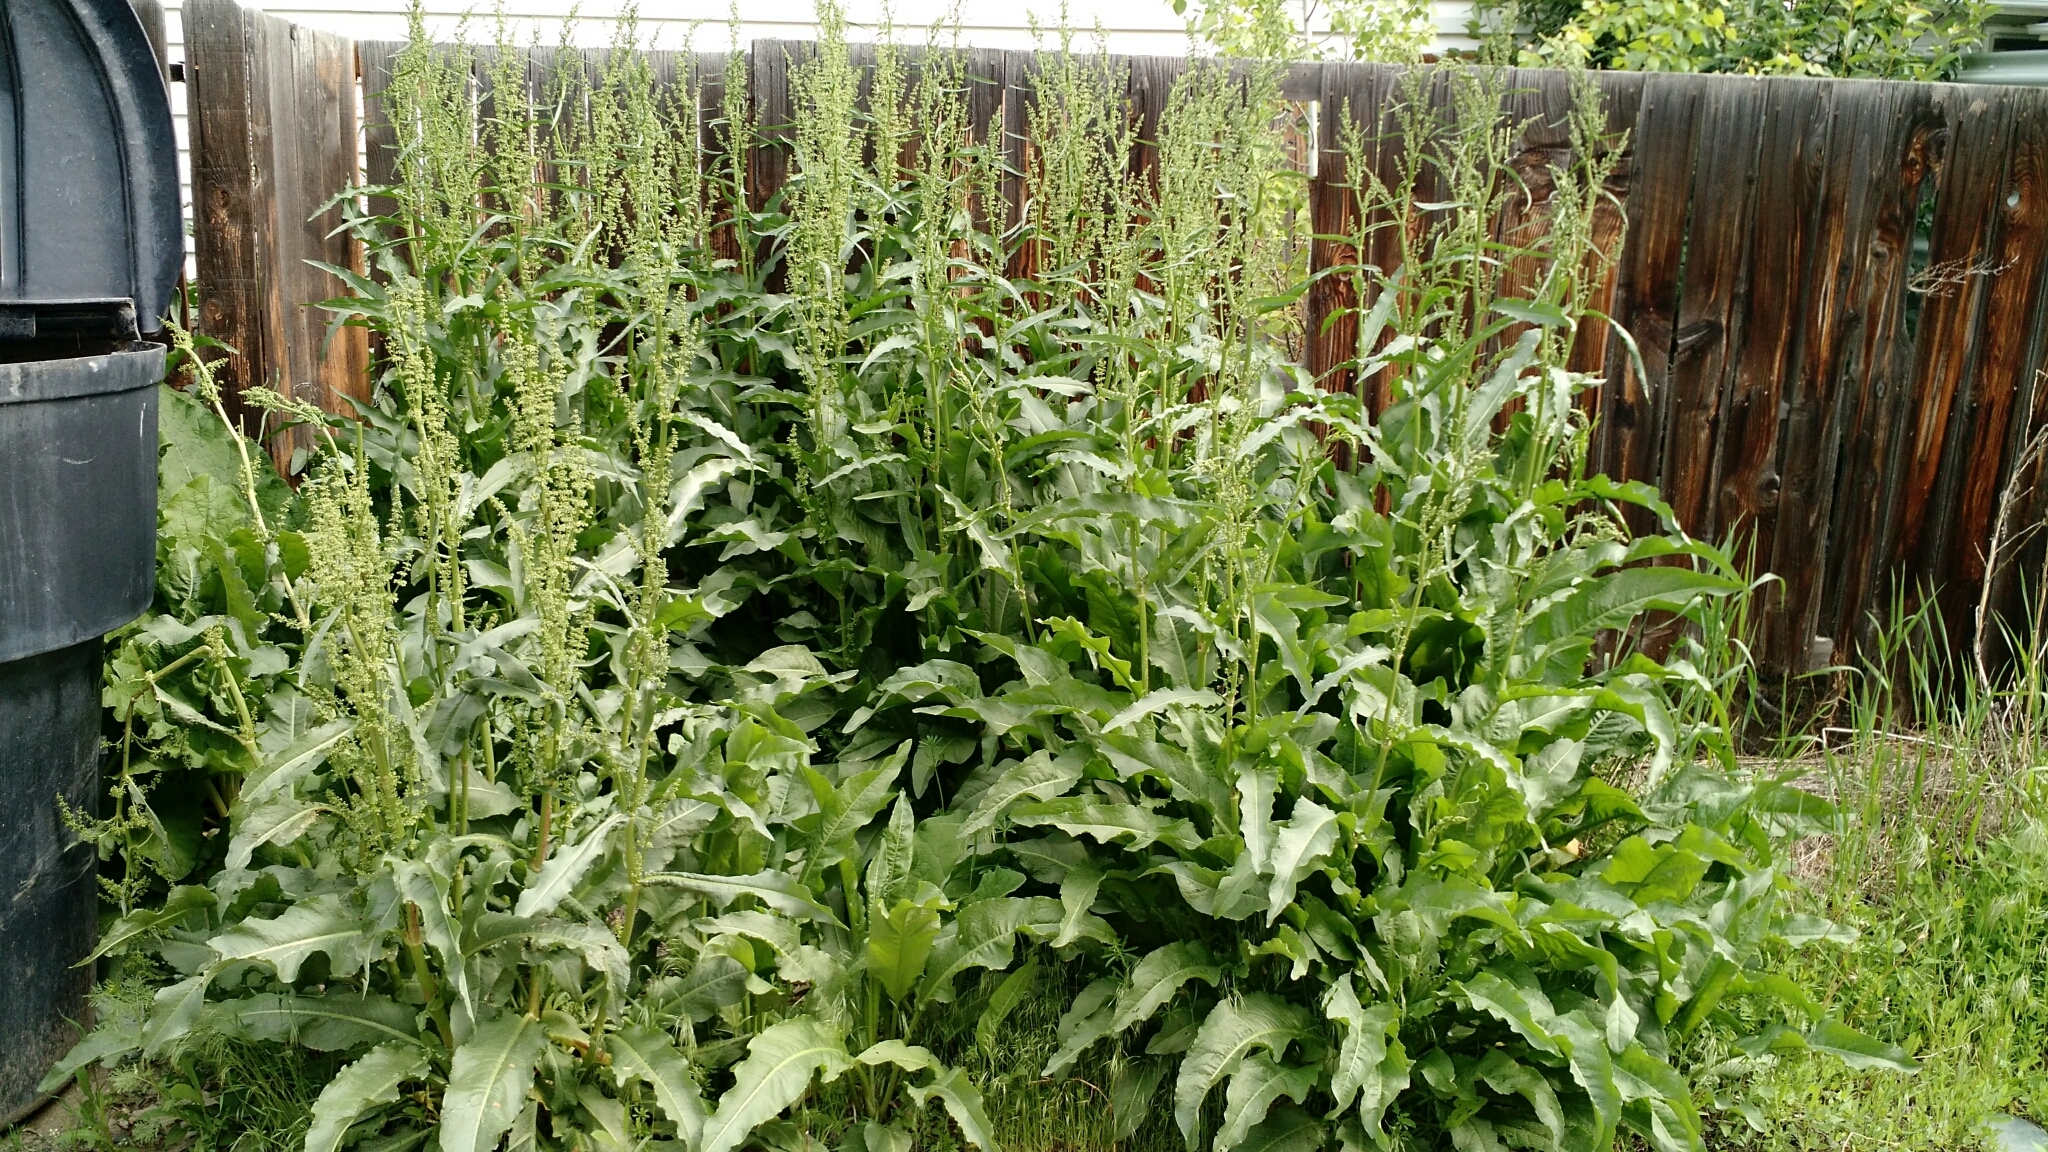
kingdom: Plantae
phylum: Tracheophyta
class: Magnoliopsida
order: Caryophyllales
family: Polygonaceae
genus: Rumex
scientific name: Rumex crispus
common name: Curled dock
